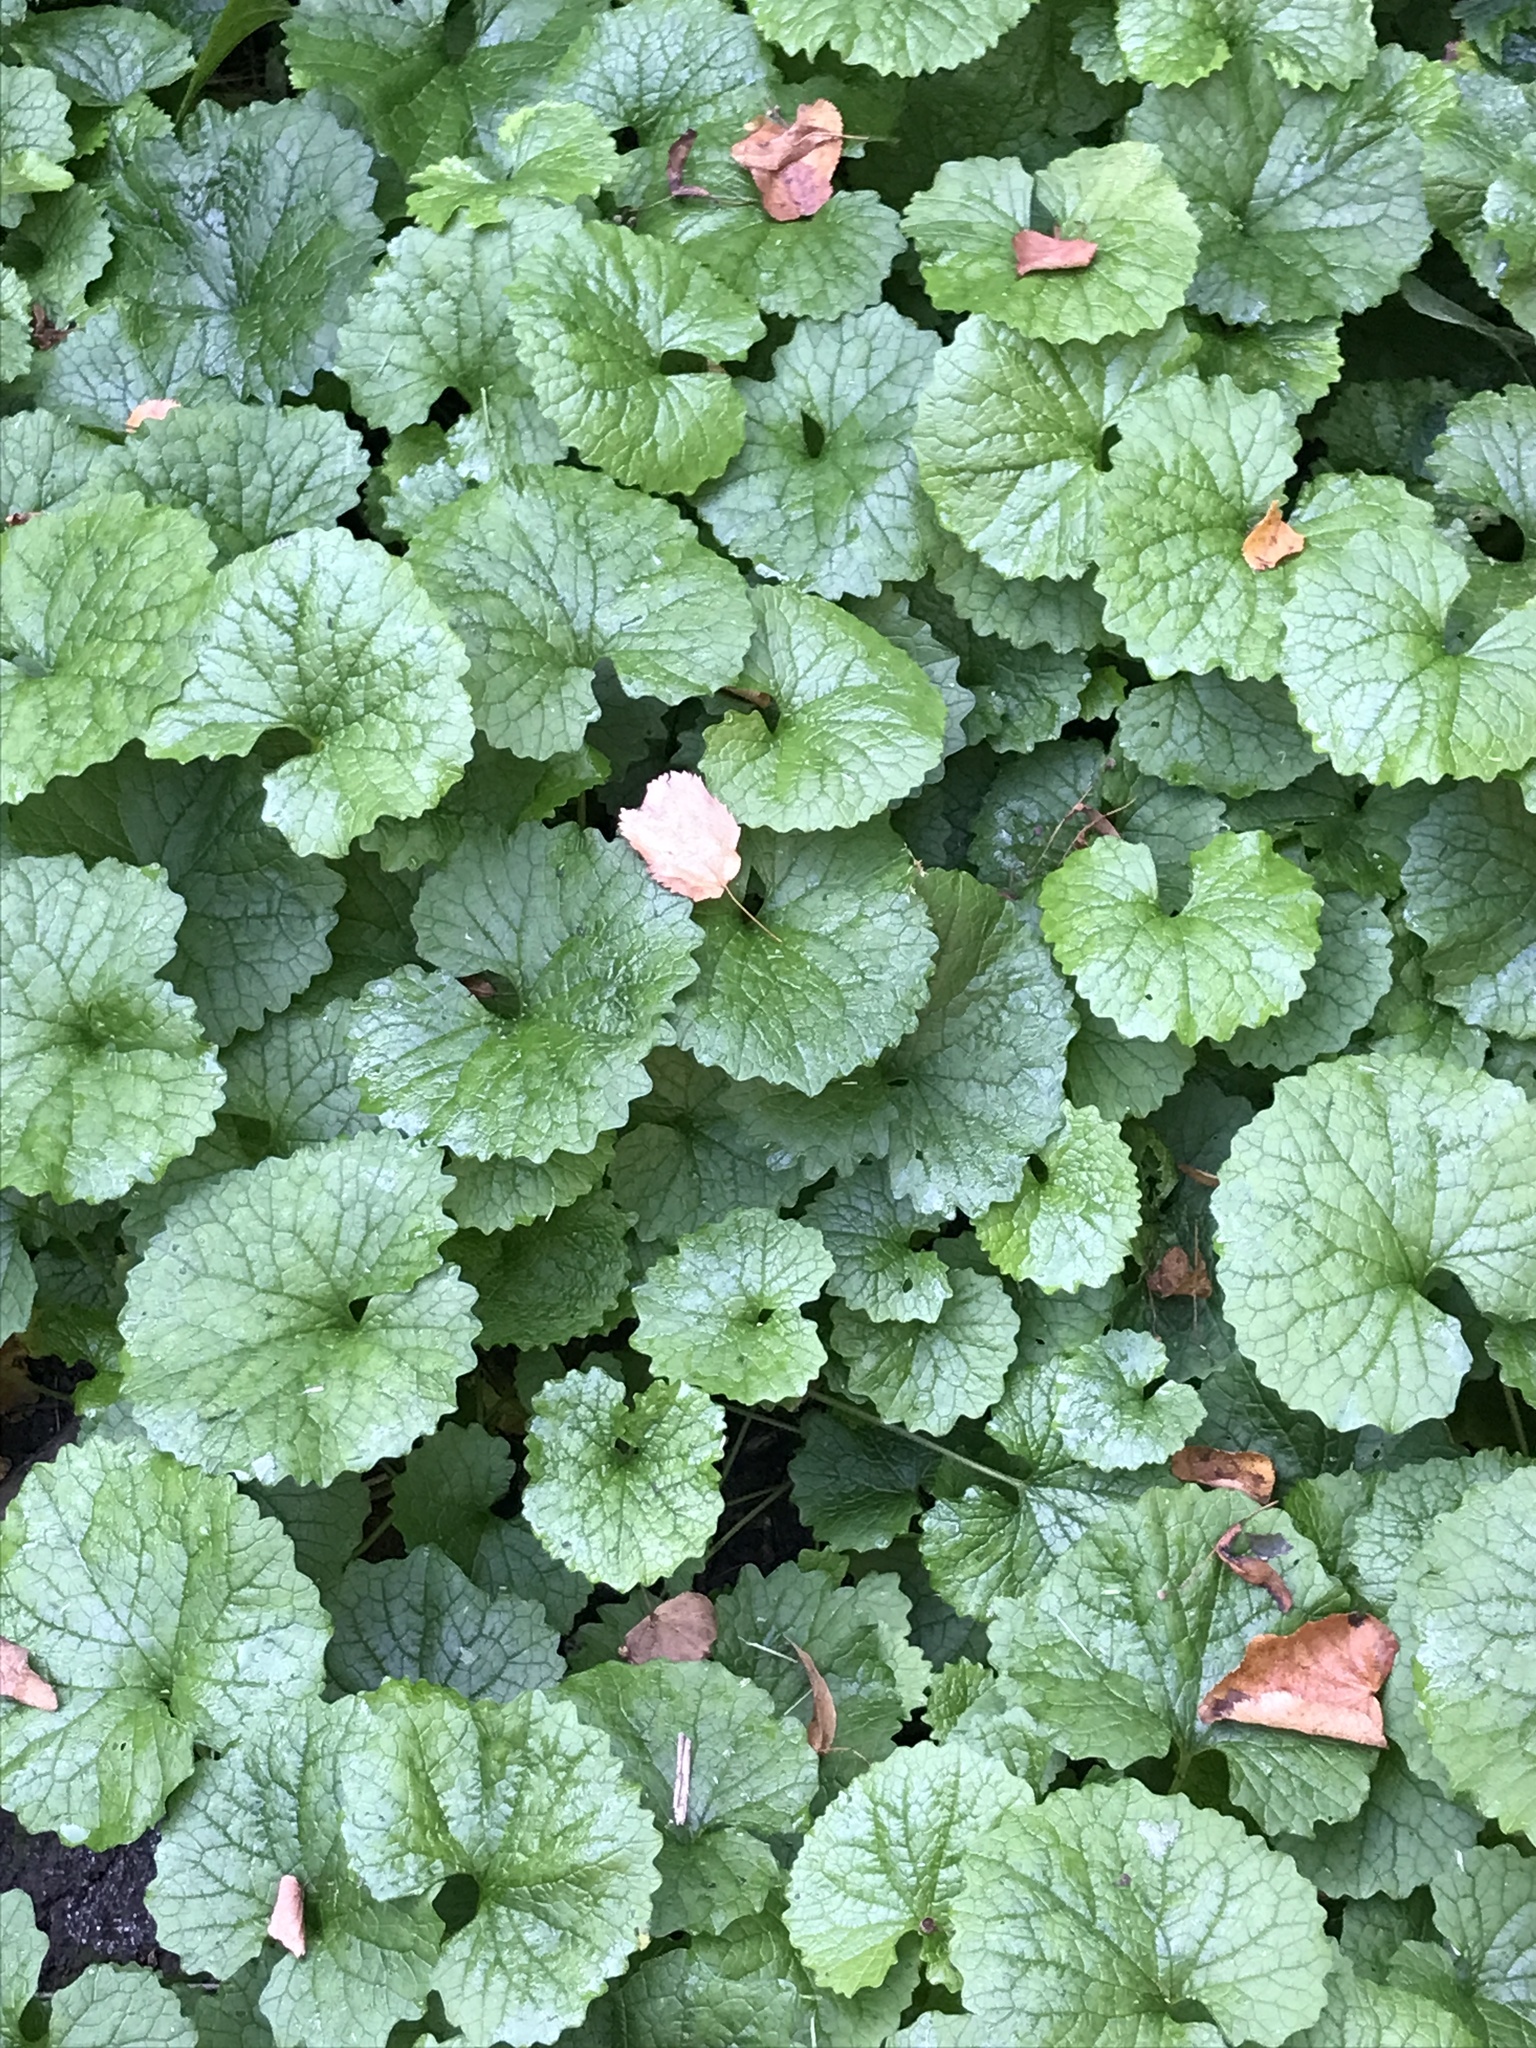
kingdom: Plantae
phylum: Tracheophyta
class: Magnoliopsida
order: Brassicales
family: Brassicaceae
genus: Alliaria
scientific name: Alliaria petiolata
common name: Garlic mustard
